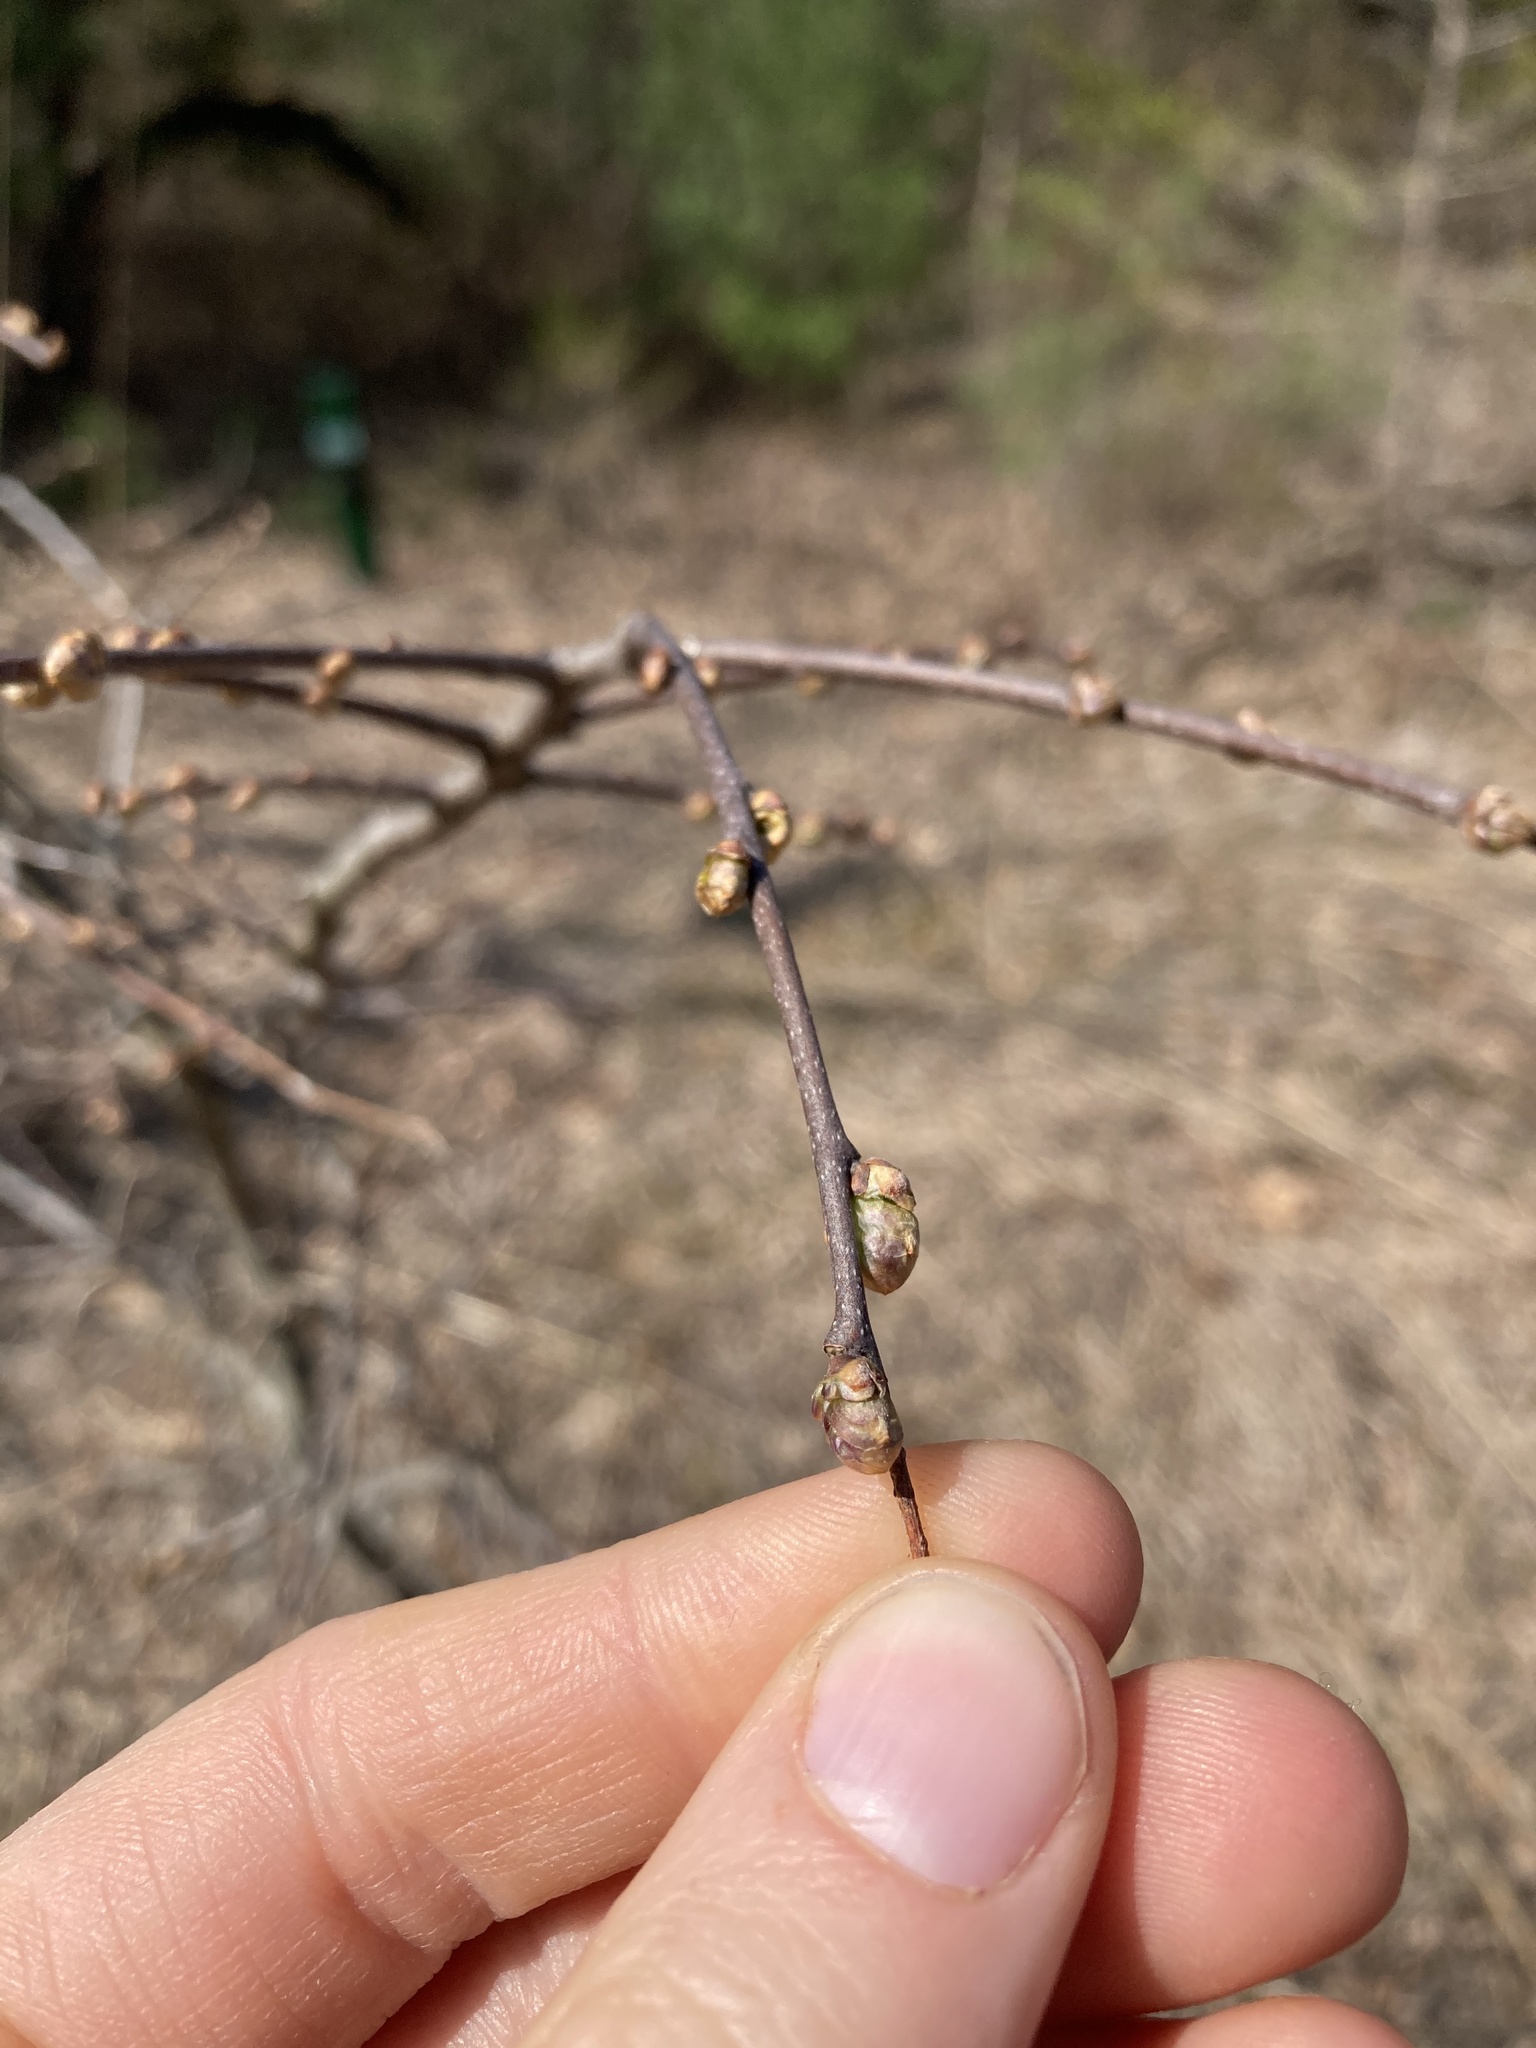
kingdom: Plantae
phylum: Tracheophyta
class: Magnoliopsida
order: Rosales
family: Cannabaceae
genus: Celtis
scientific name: Celtis tenuifolia
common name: Georgia hackberry
